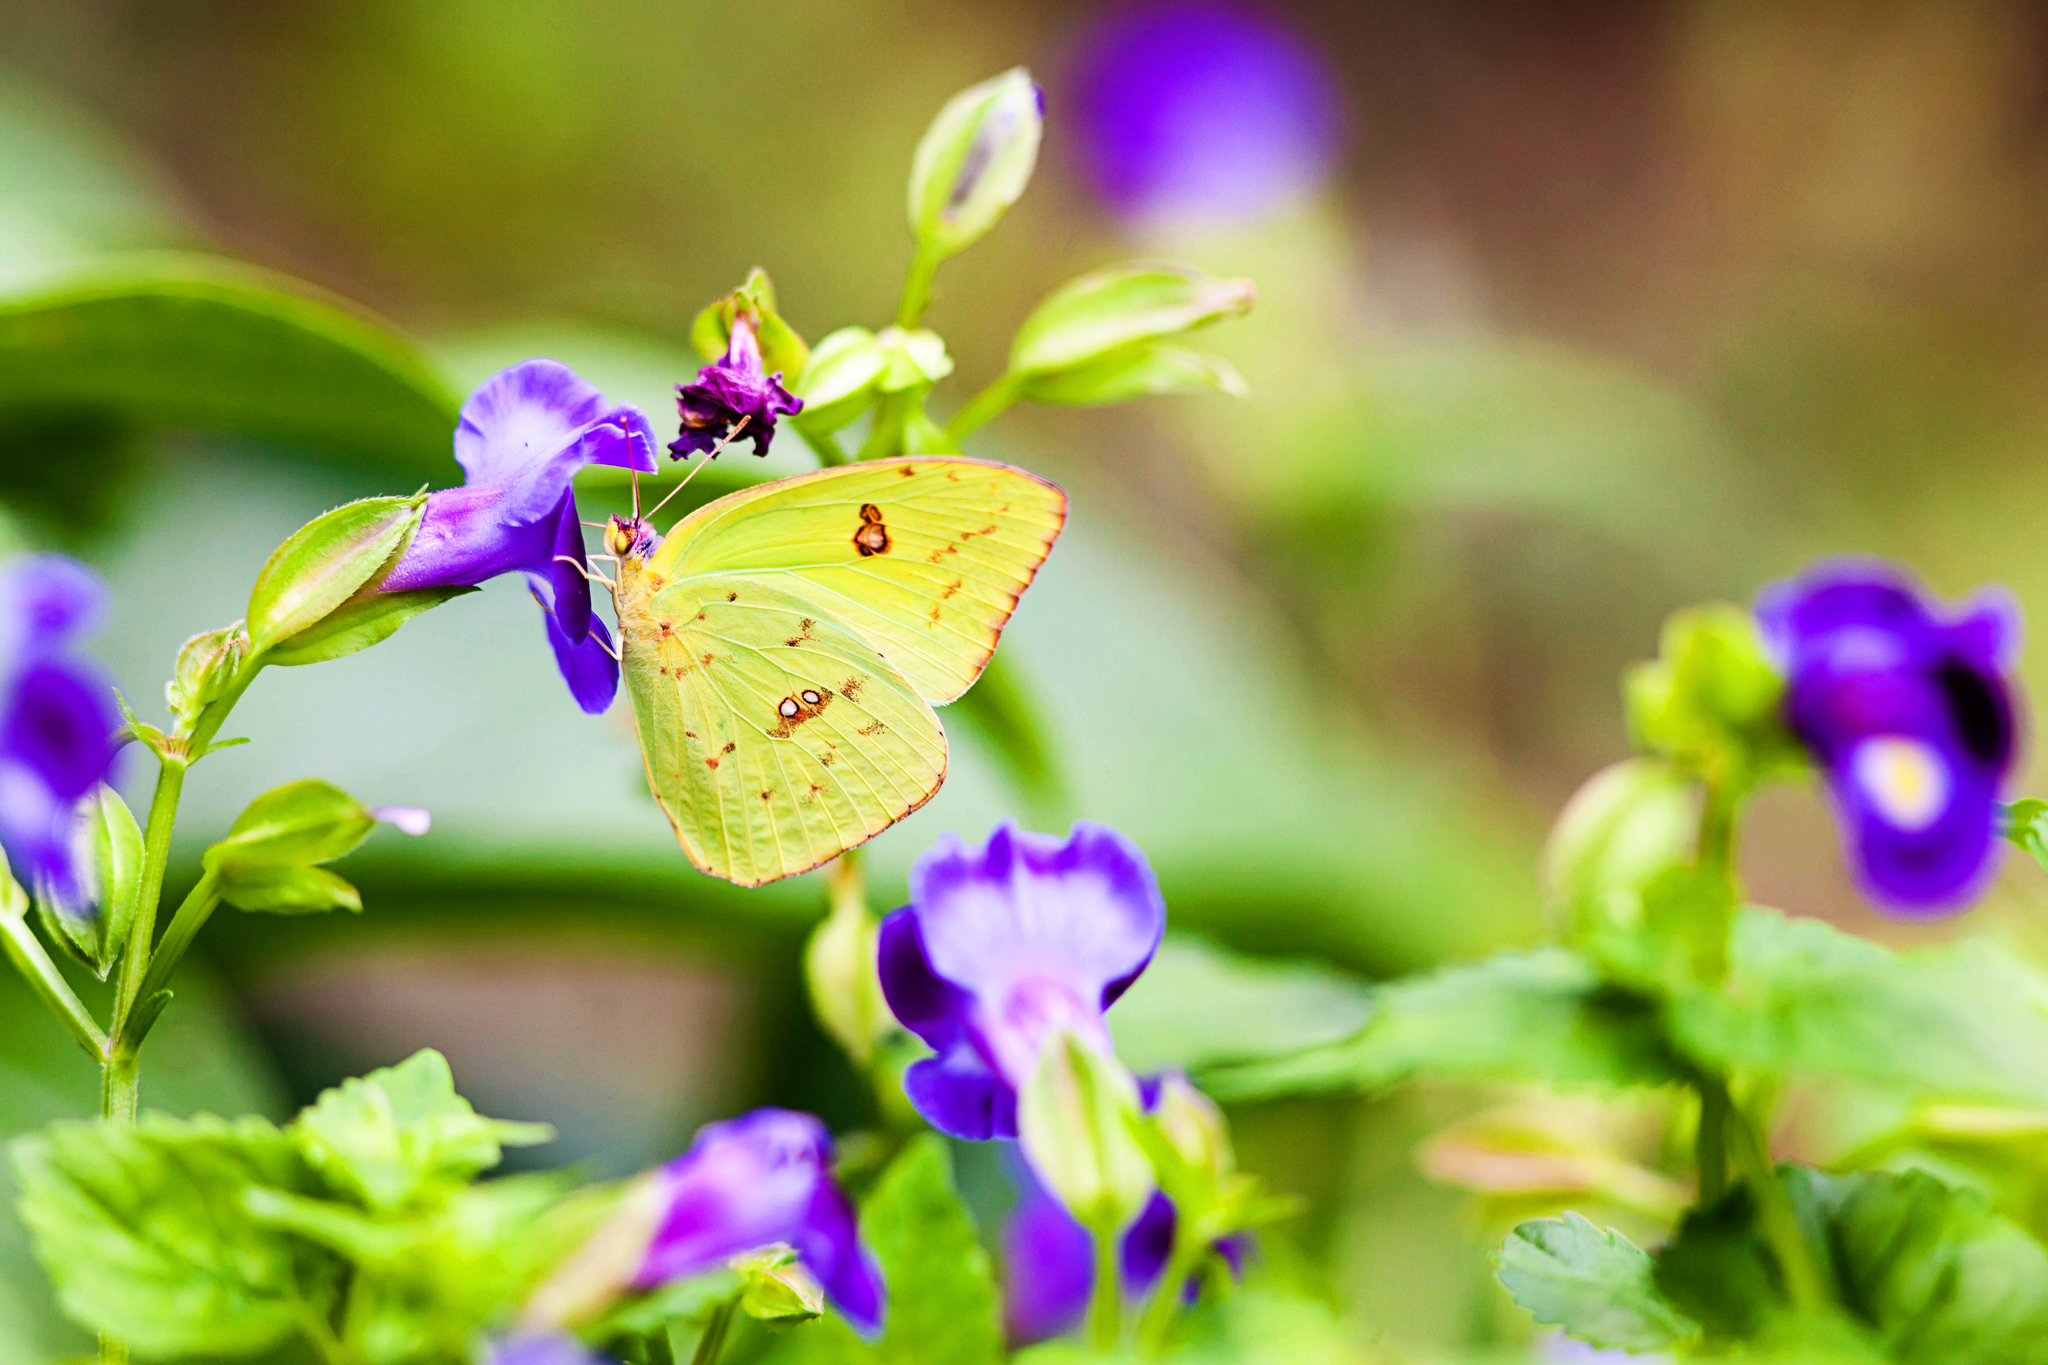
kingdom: Animalia
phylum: Arthropoda
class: Insecta
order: Lepidoptera
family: Pieridae
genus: Phoebis
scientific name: Phoebis sennae
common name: Cloudless sulphur
